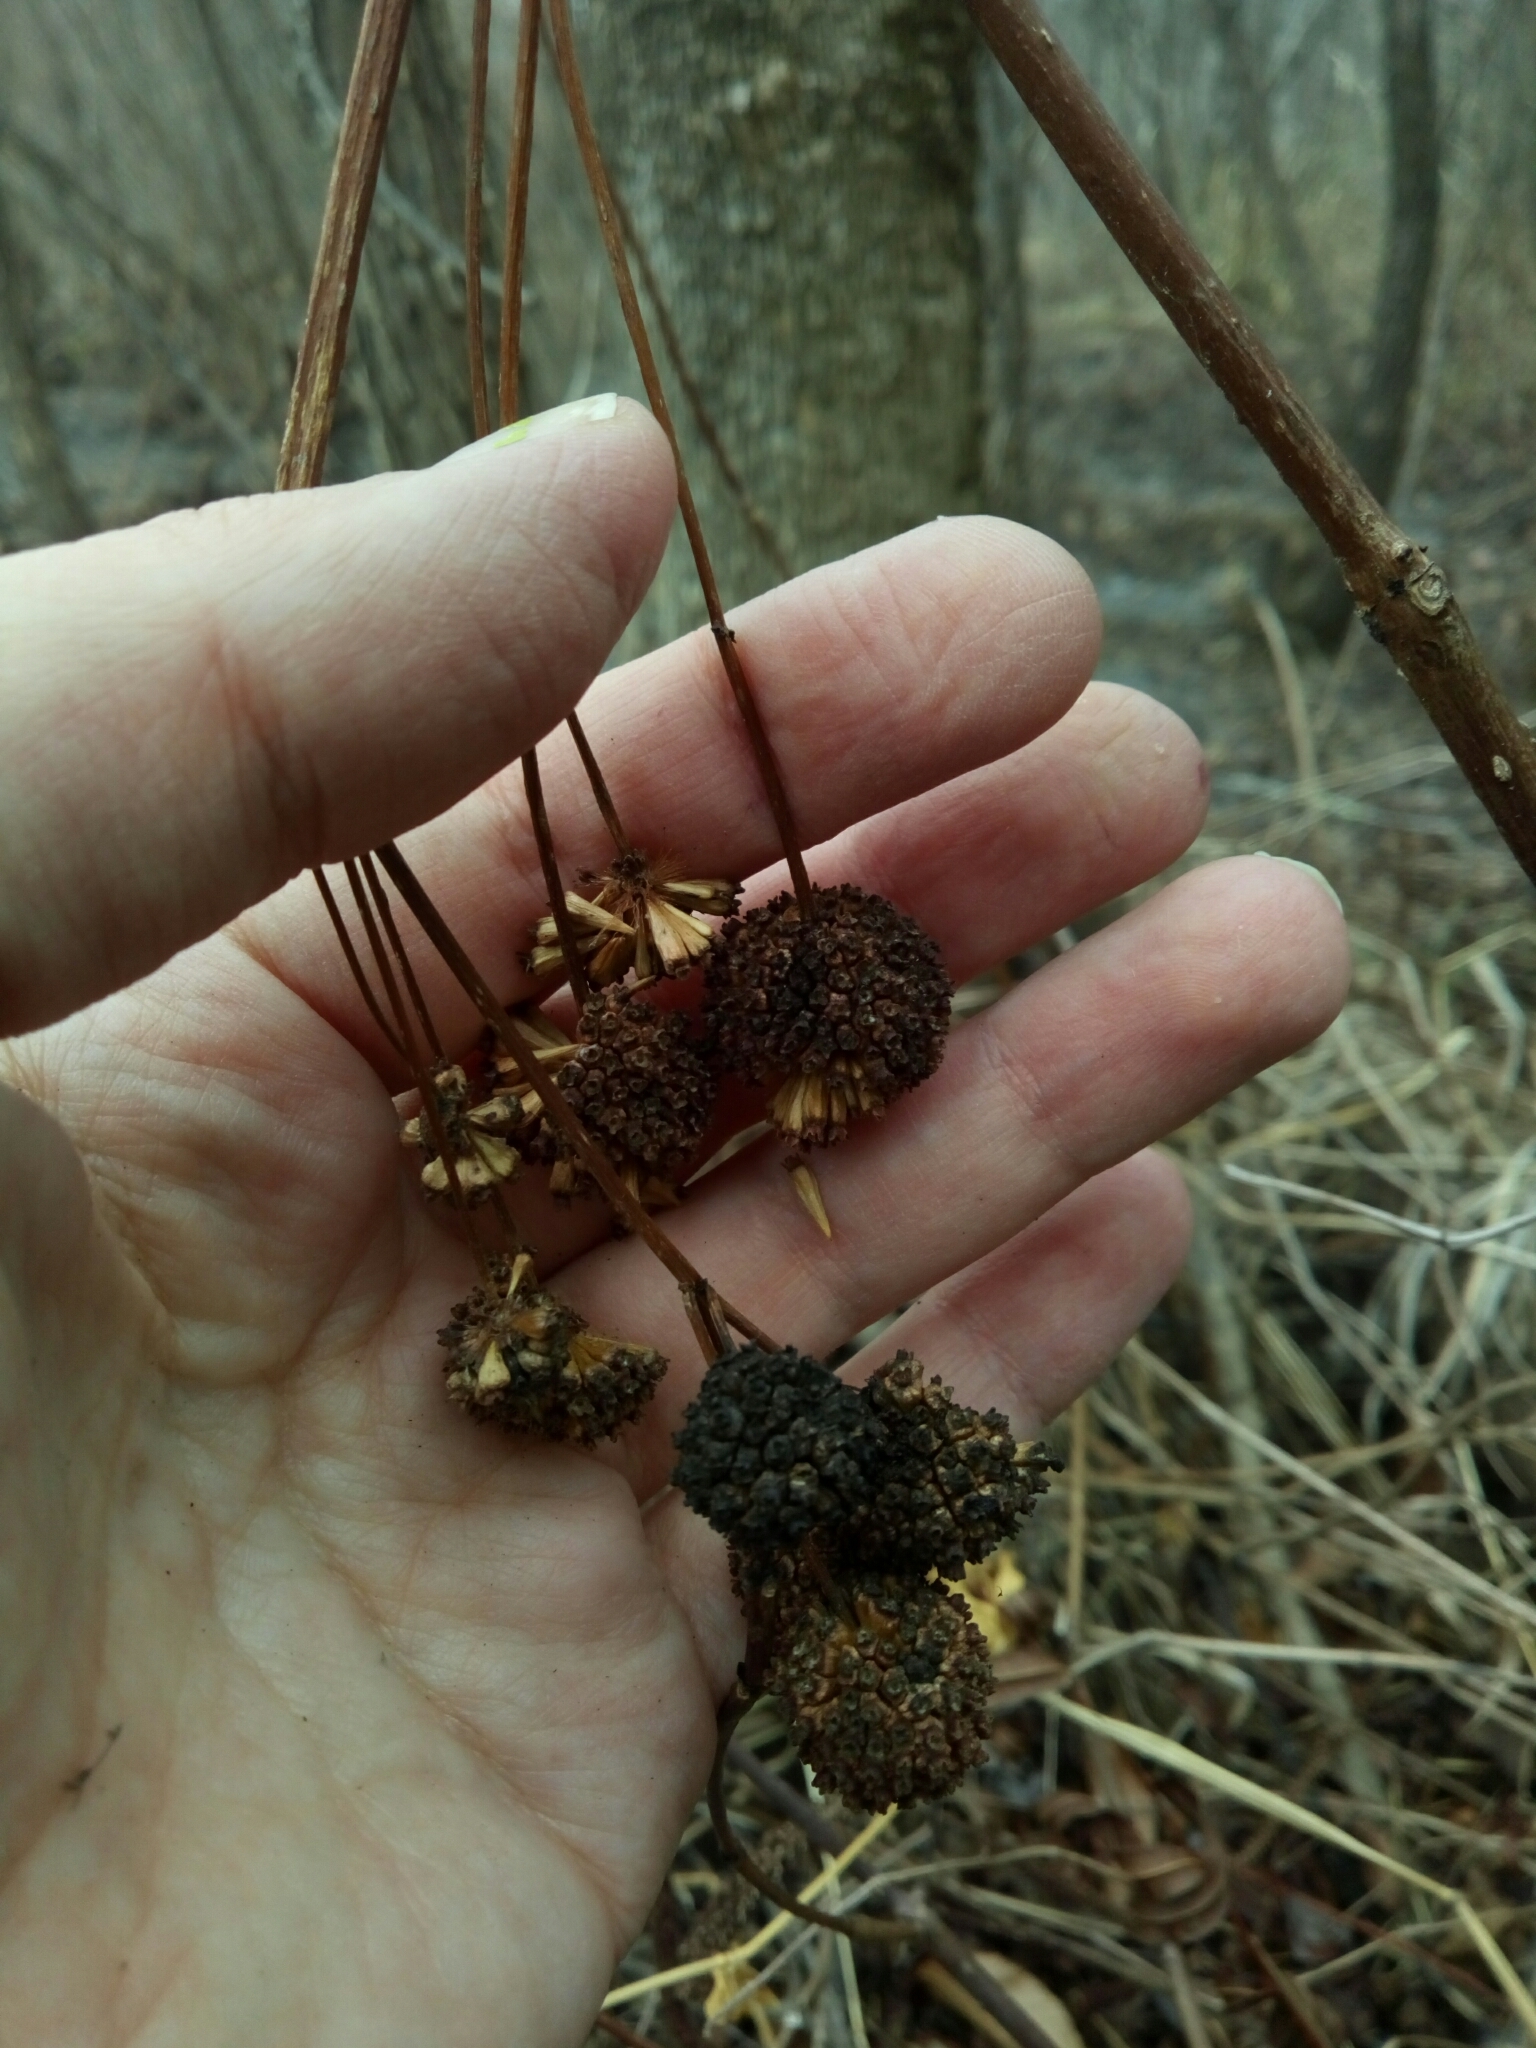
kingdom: Plantae
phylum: Tracheophyta
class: Magnoliopsida
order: Gentianales
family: Rubiaceae
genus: Cephalanthus
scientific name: Cephalanthus occidentalis
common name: Button-willow
